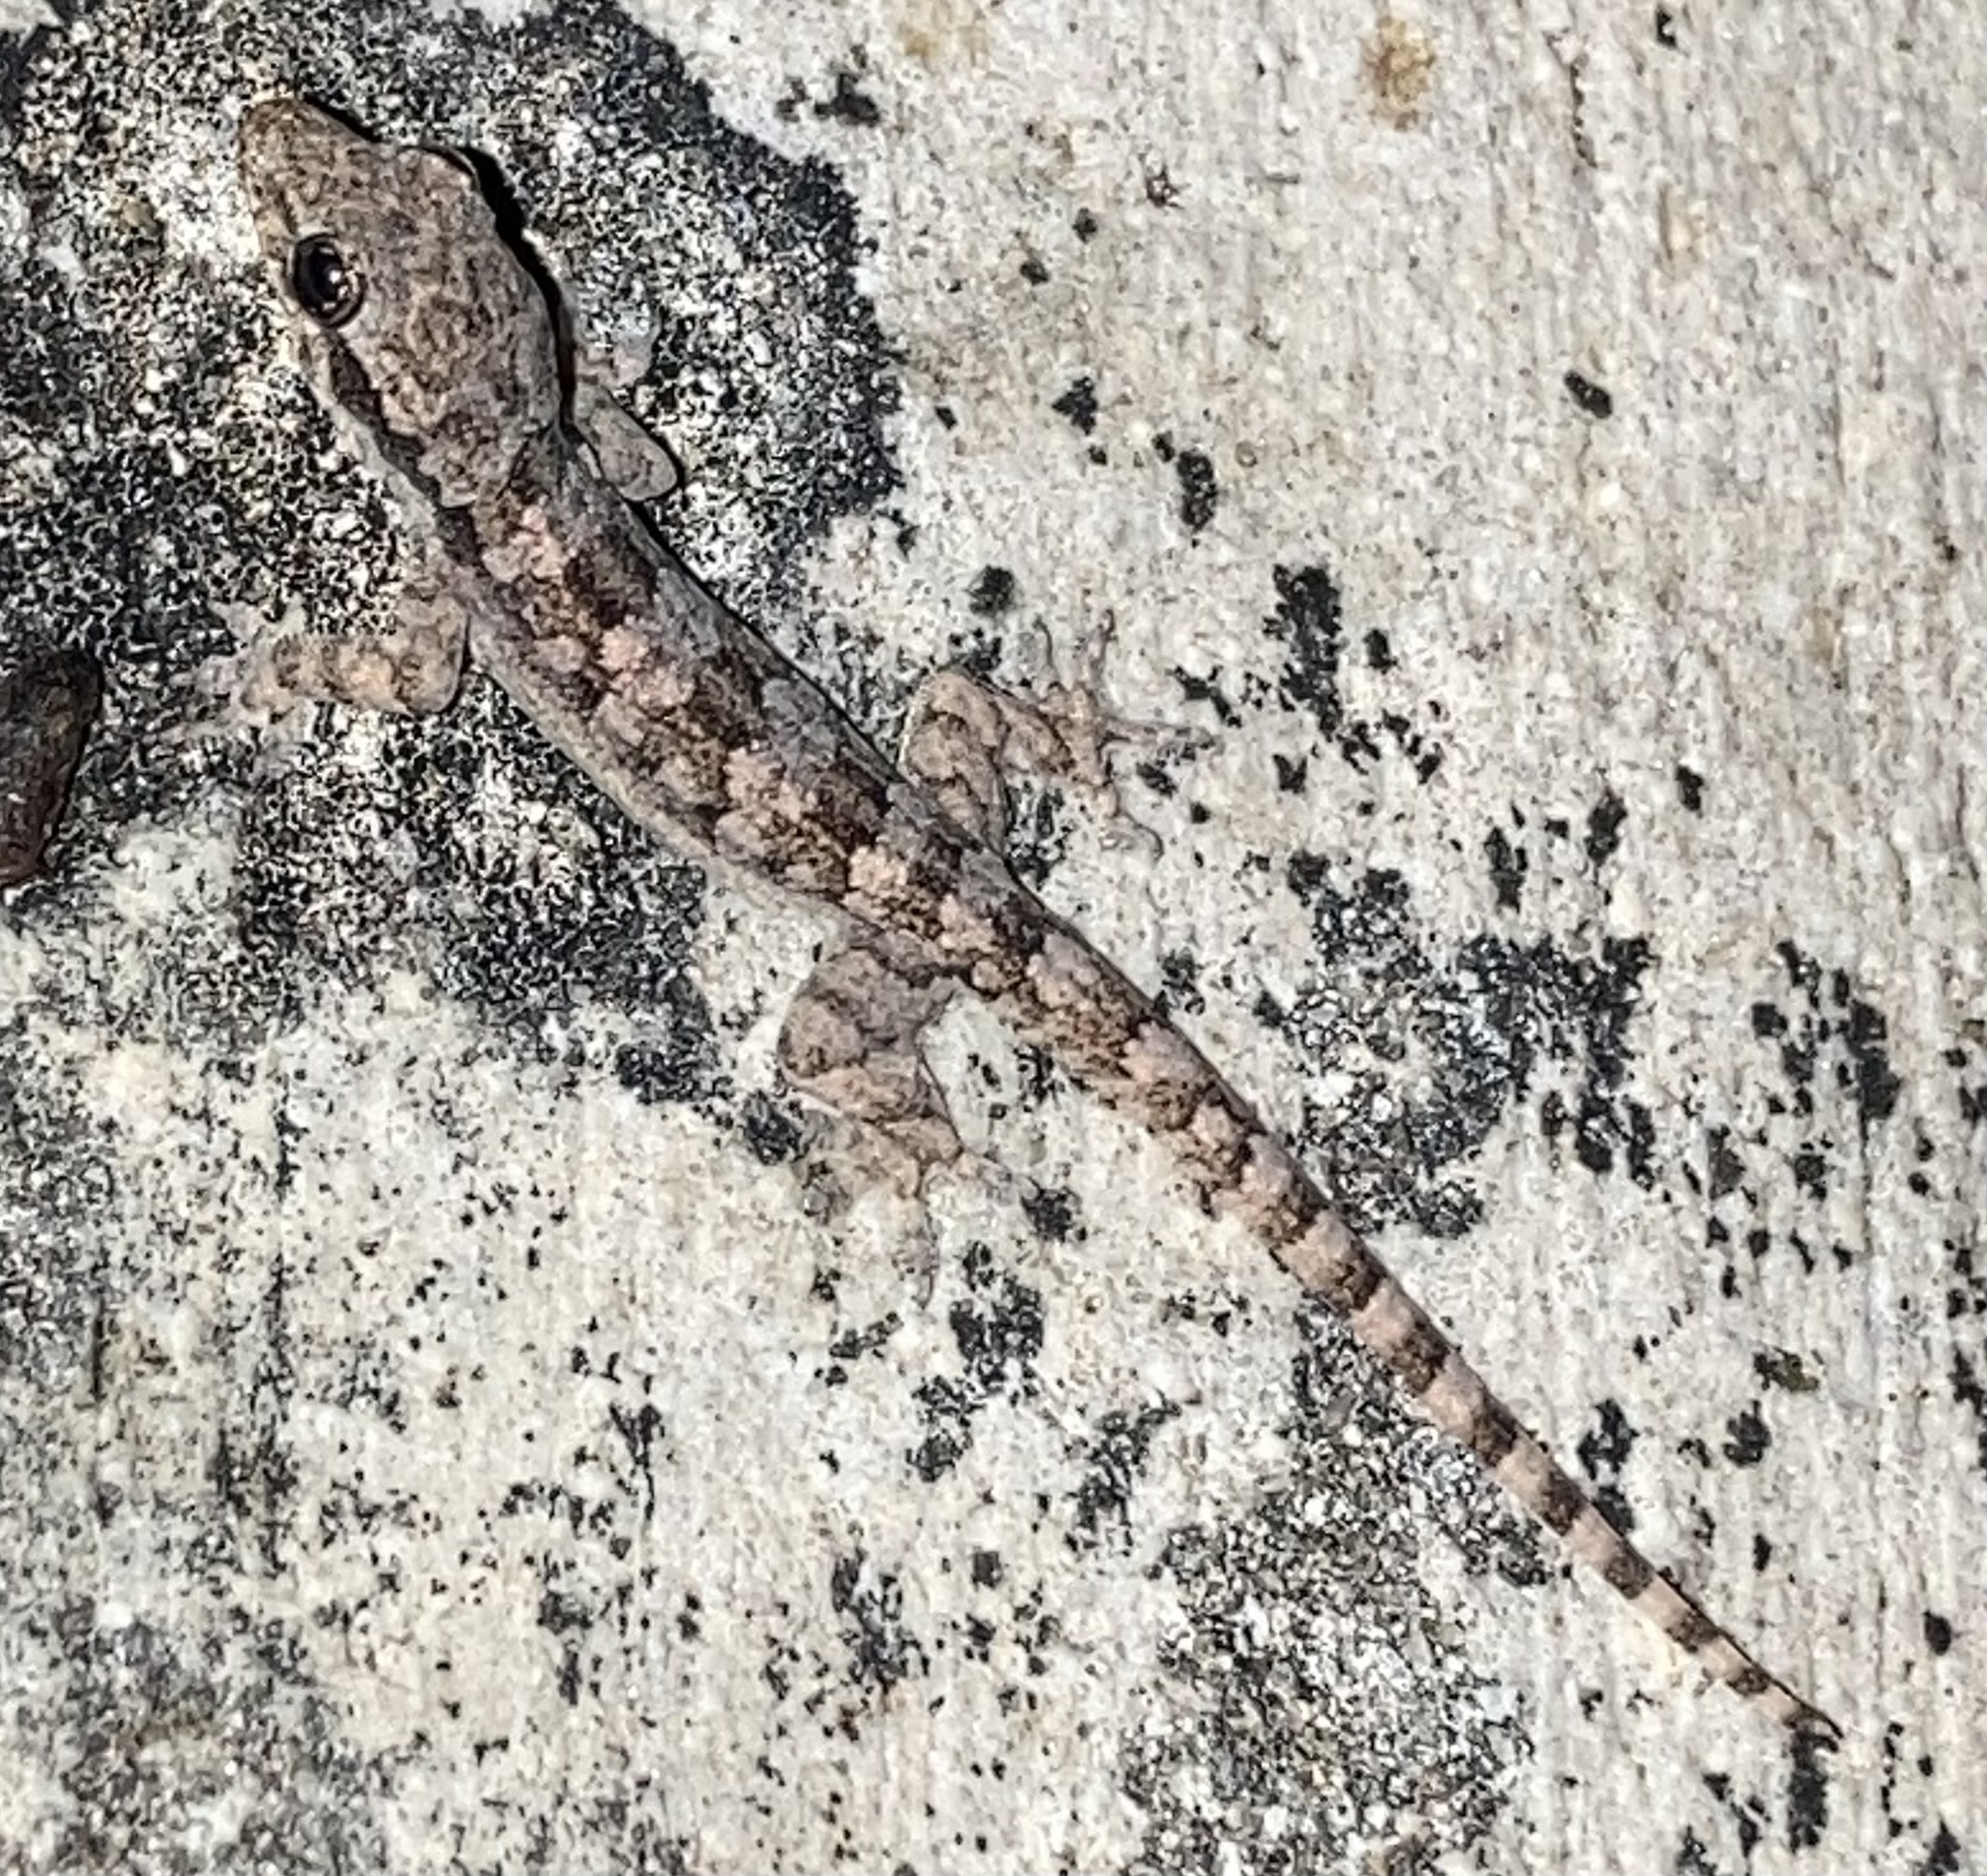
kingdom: Animalia
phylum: Chordata
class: Squamata
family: Gekkonidae
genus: Hemidactylus
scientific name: Hemidactylus platyurus
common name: Flat-tailed house gecko
